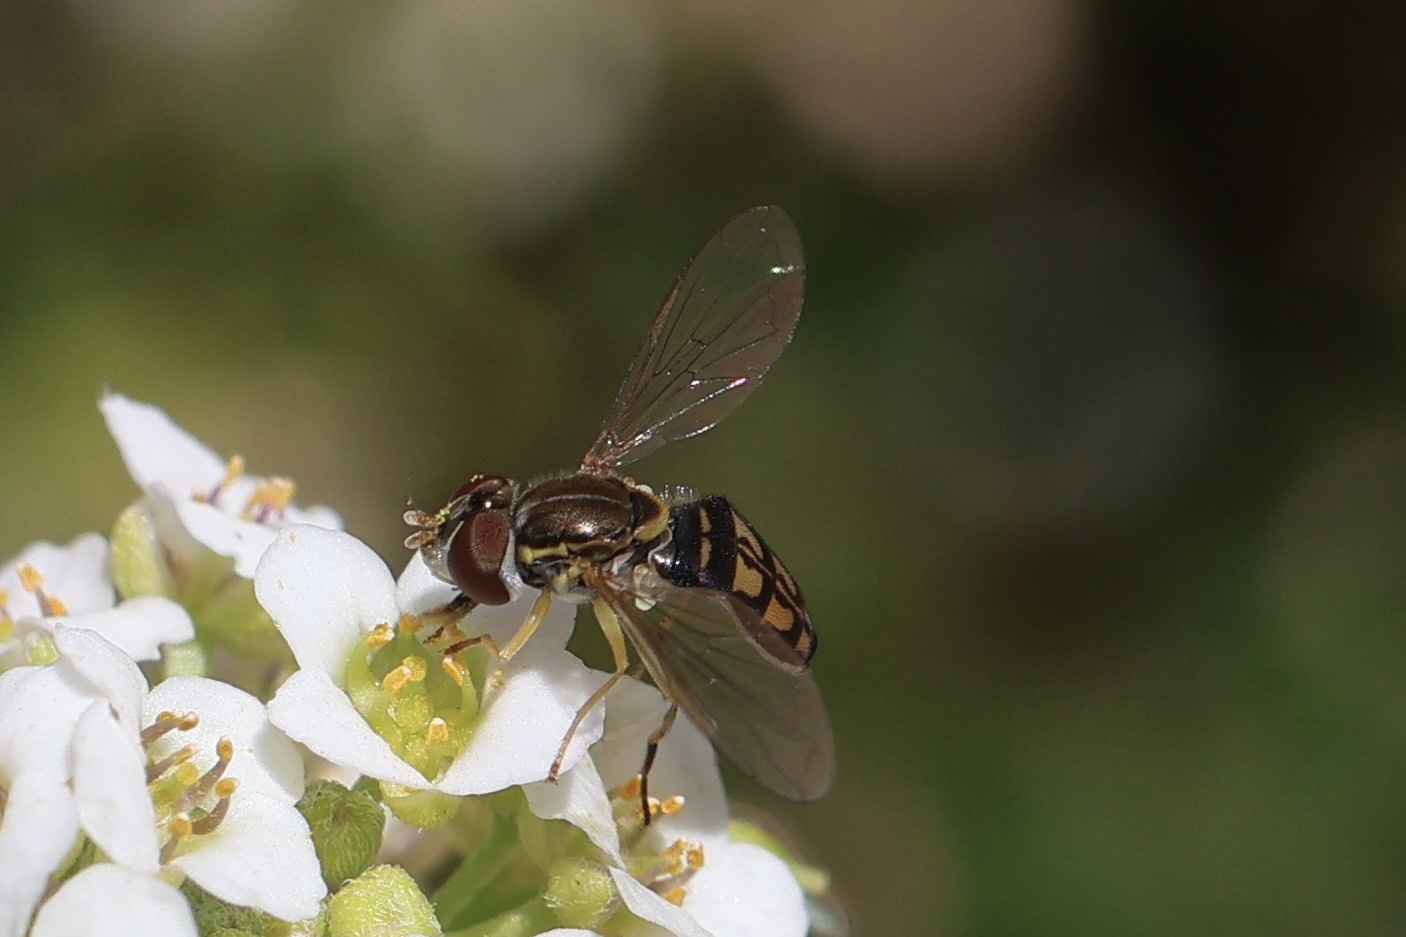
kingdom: Animalia
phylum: Arthropoda
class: Insecta
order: Diptera
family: Syrphidae
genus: Toxomerus
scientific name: Toxomerus marginatus
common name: Syrphid fly
